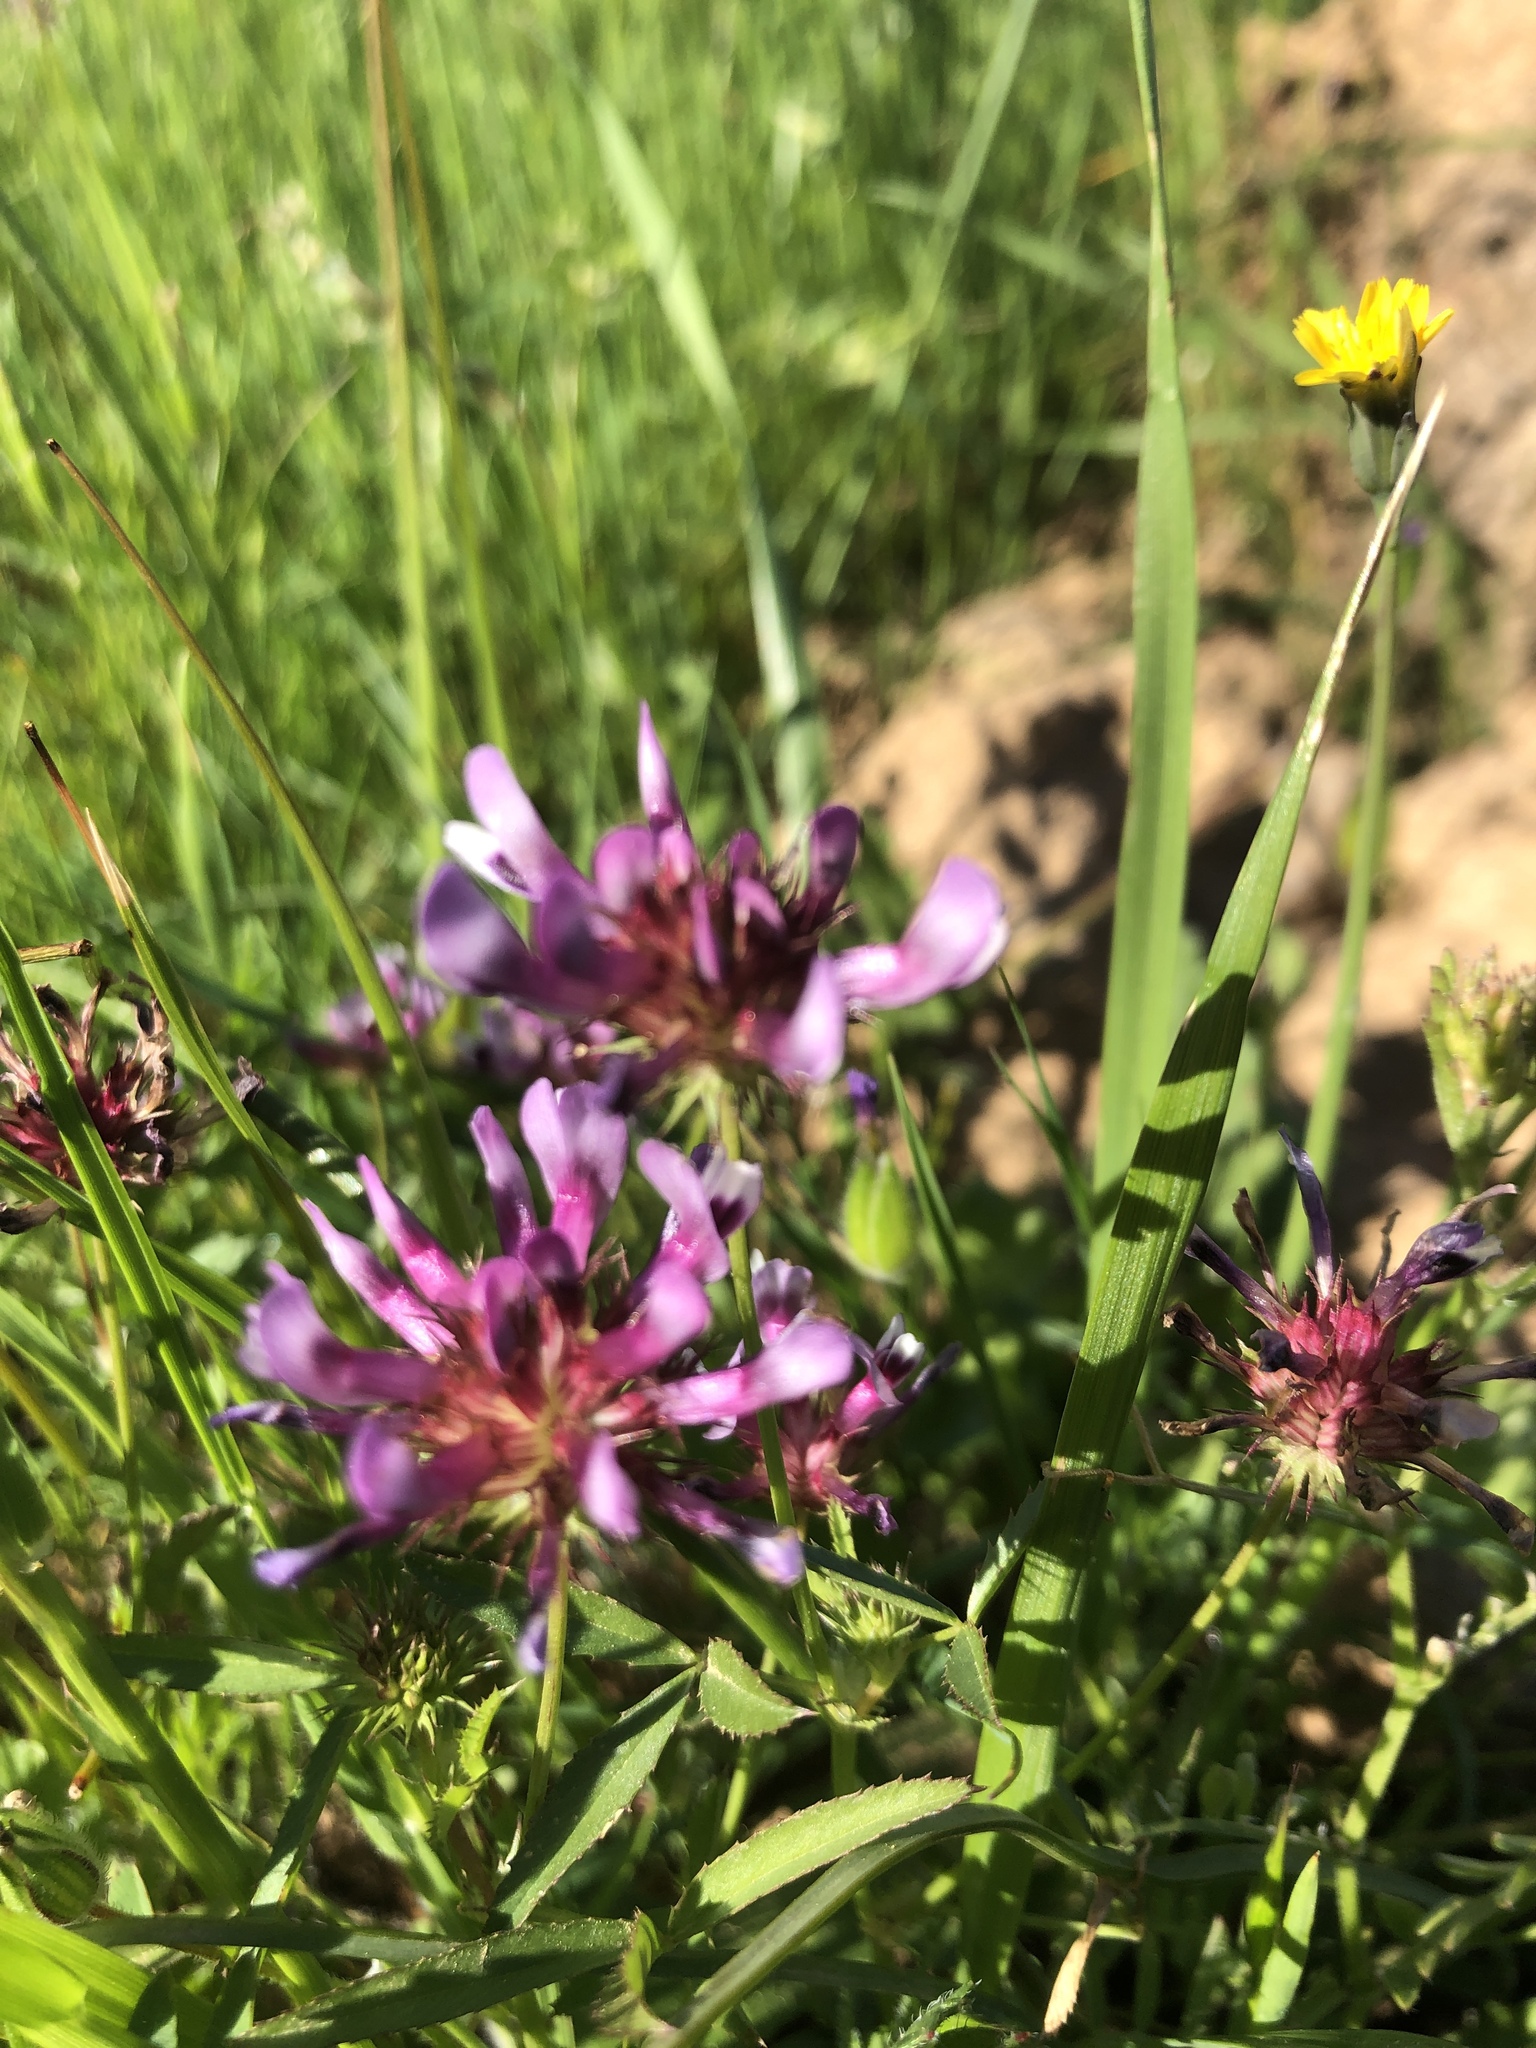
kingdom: Plantae
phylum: Tracheophyta
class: Magnoliopsida
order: Fabales
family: Fabaceae
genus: Trifolium
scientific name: Trifolium willdenovii
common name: Tomcat clover
